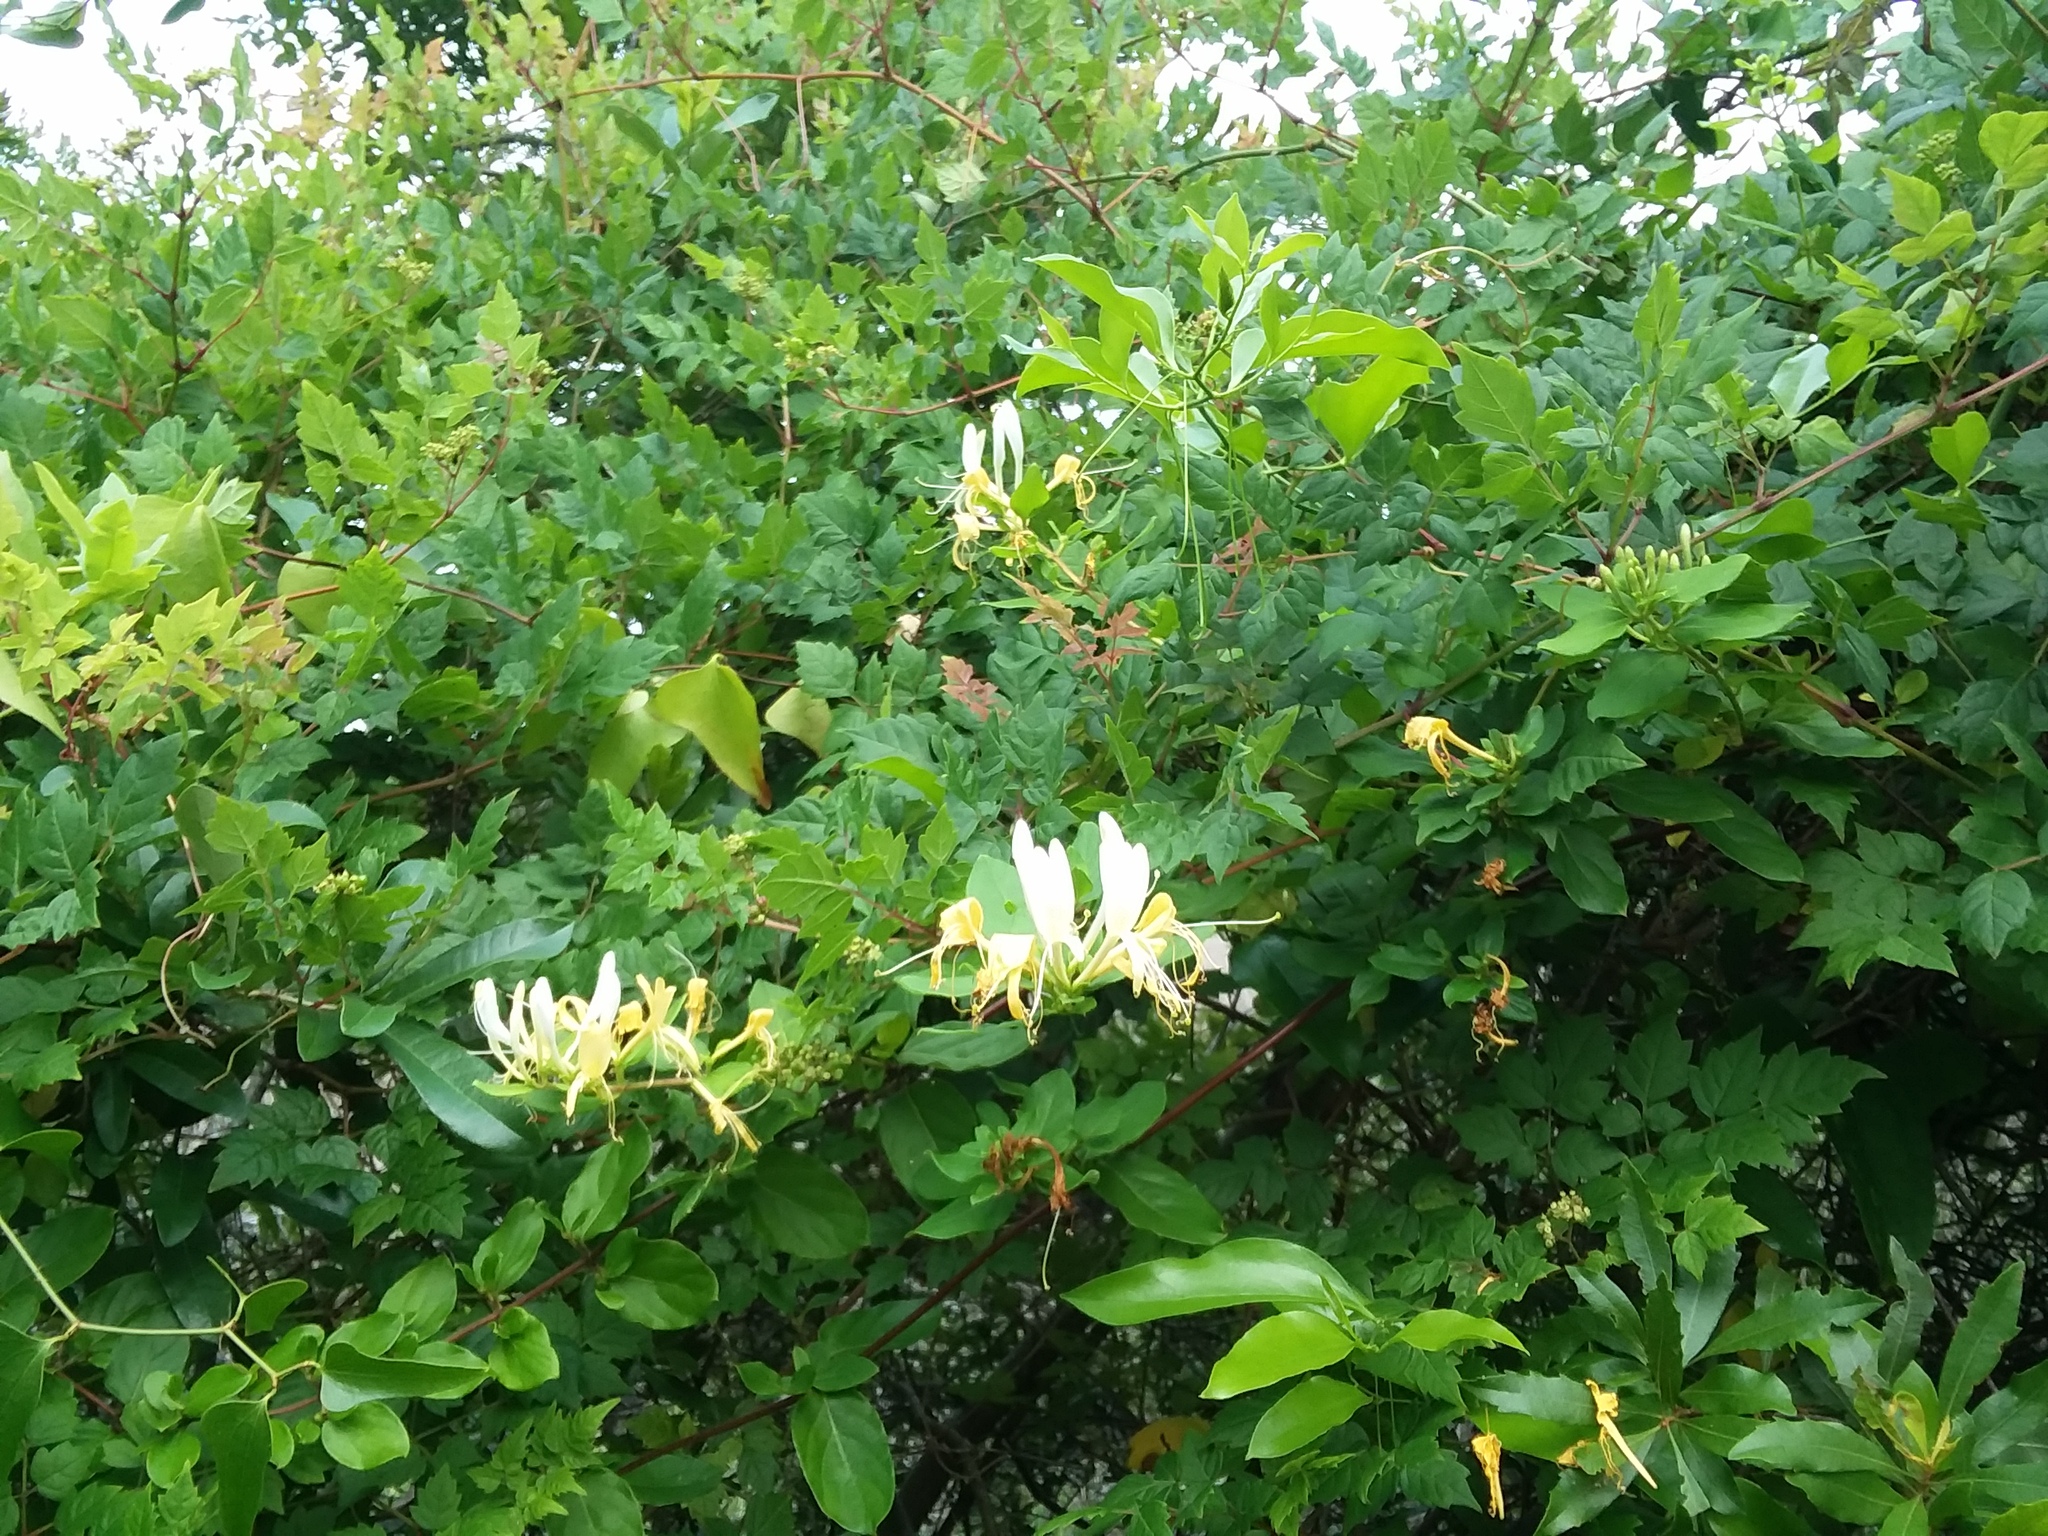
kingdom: Plantae
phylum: Tracheophyta
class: Magnoliopsida
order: Dipsacales
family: Caprifoliaceae
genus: Lonicera
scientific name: Lonicera japonica
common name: Japanese honeysuckle
